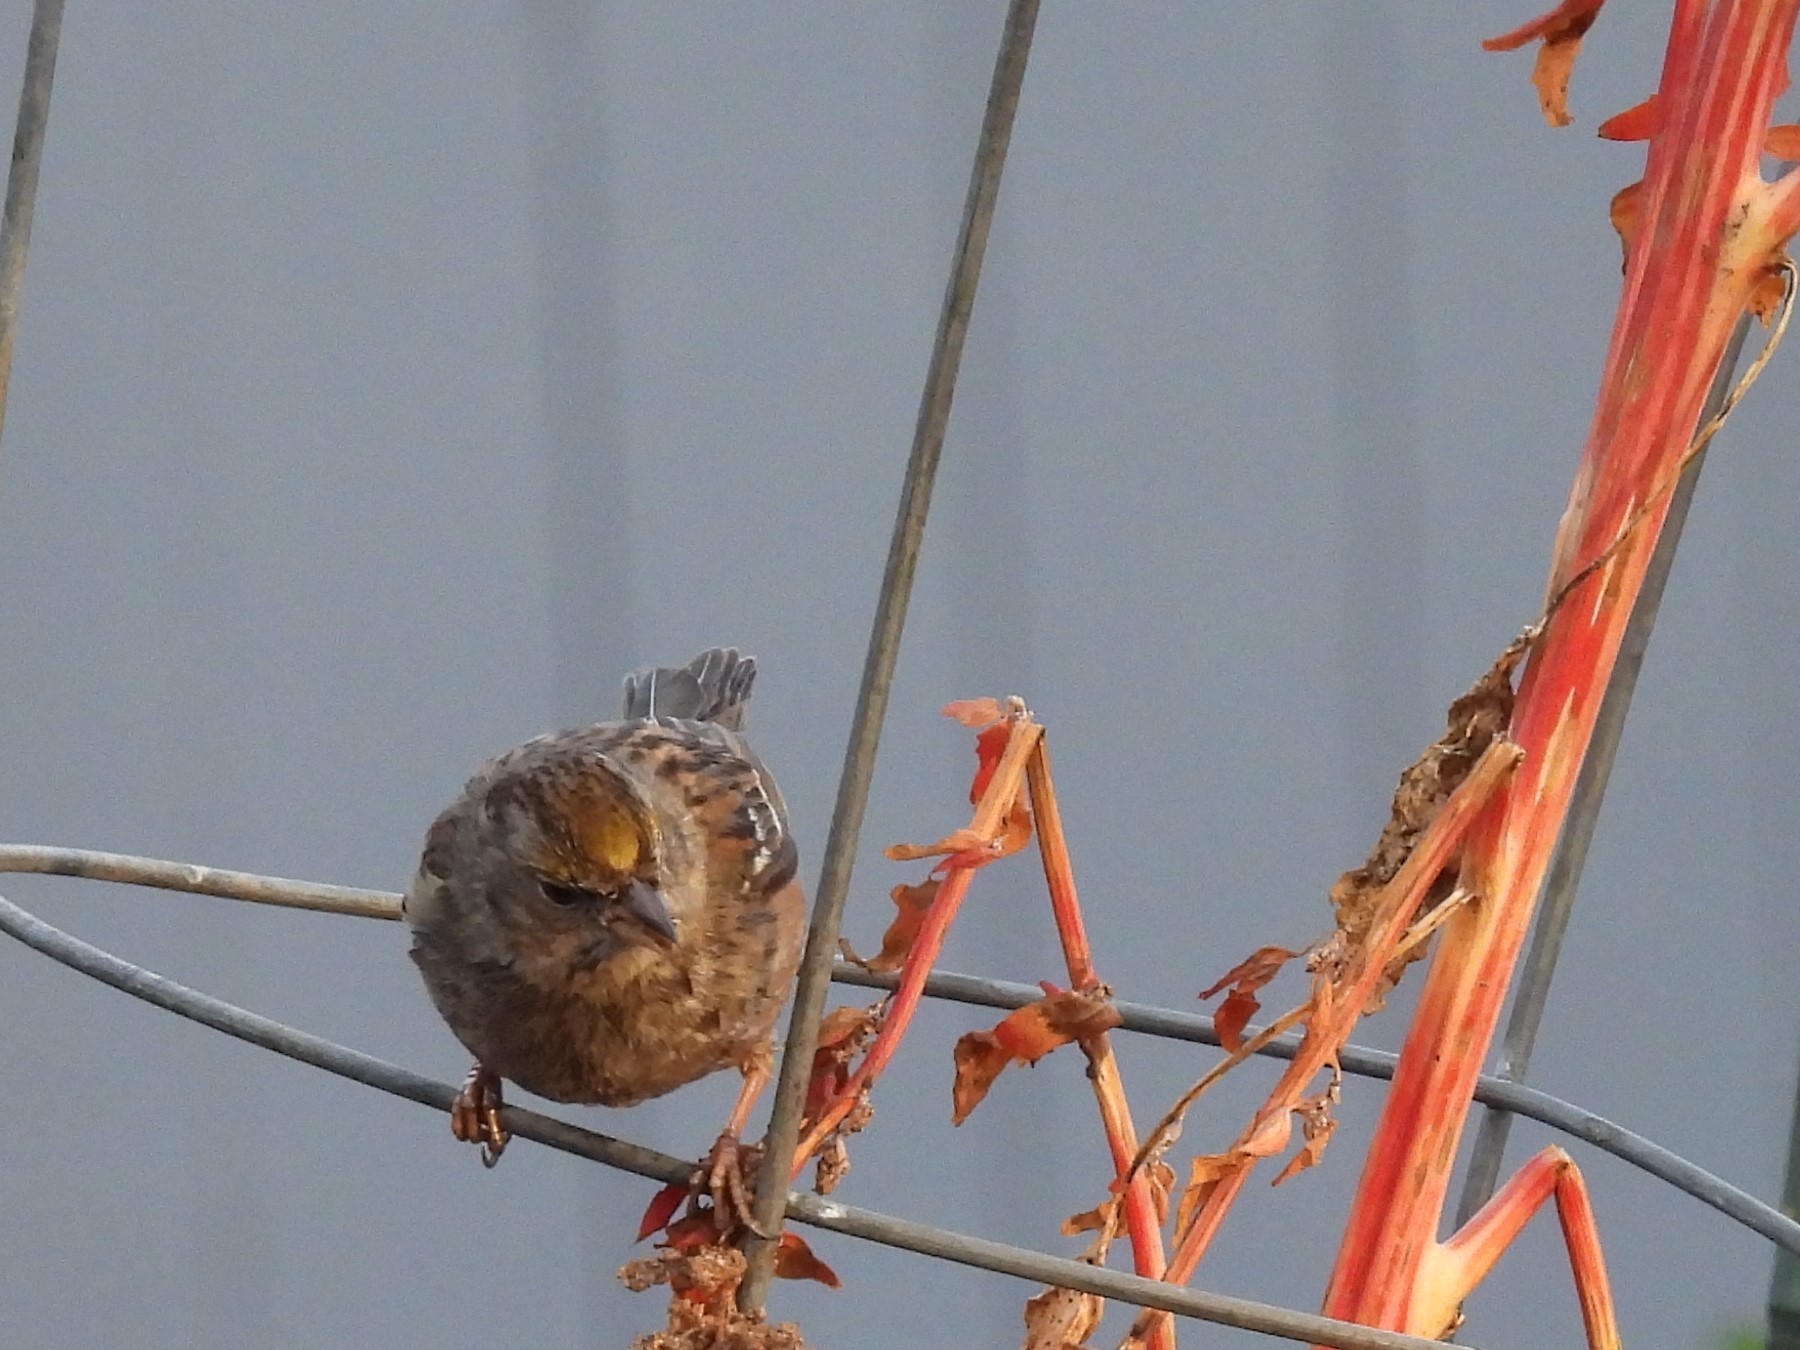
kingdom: Animalia
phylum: Chordata
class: Aves
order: Passeriformes
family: Passerellidae
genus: Zonotrichia
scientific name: Zonotrichia atricapilla
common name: Golden-crowned sparrow
